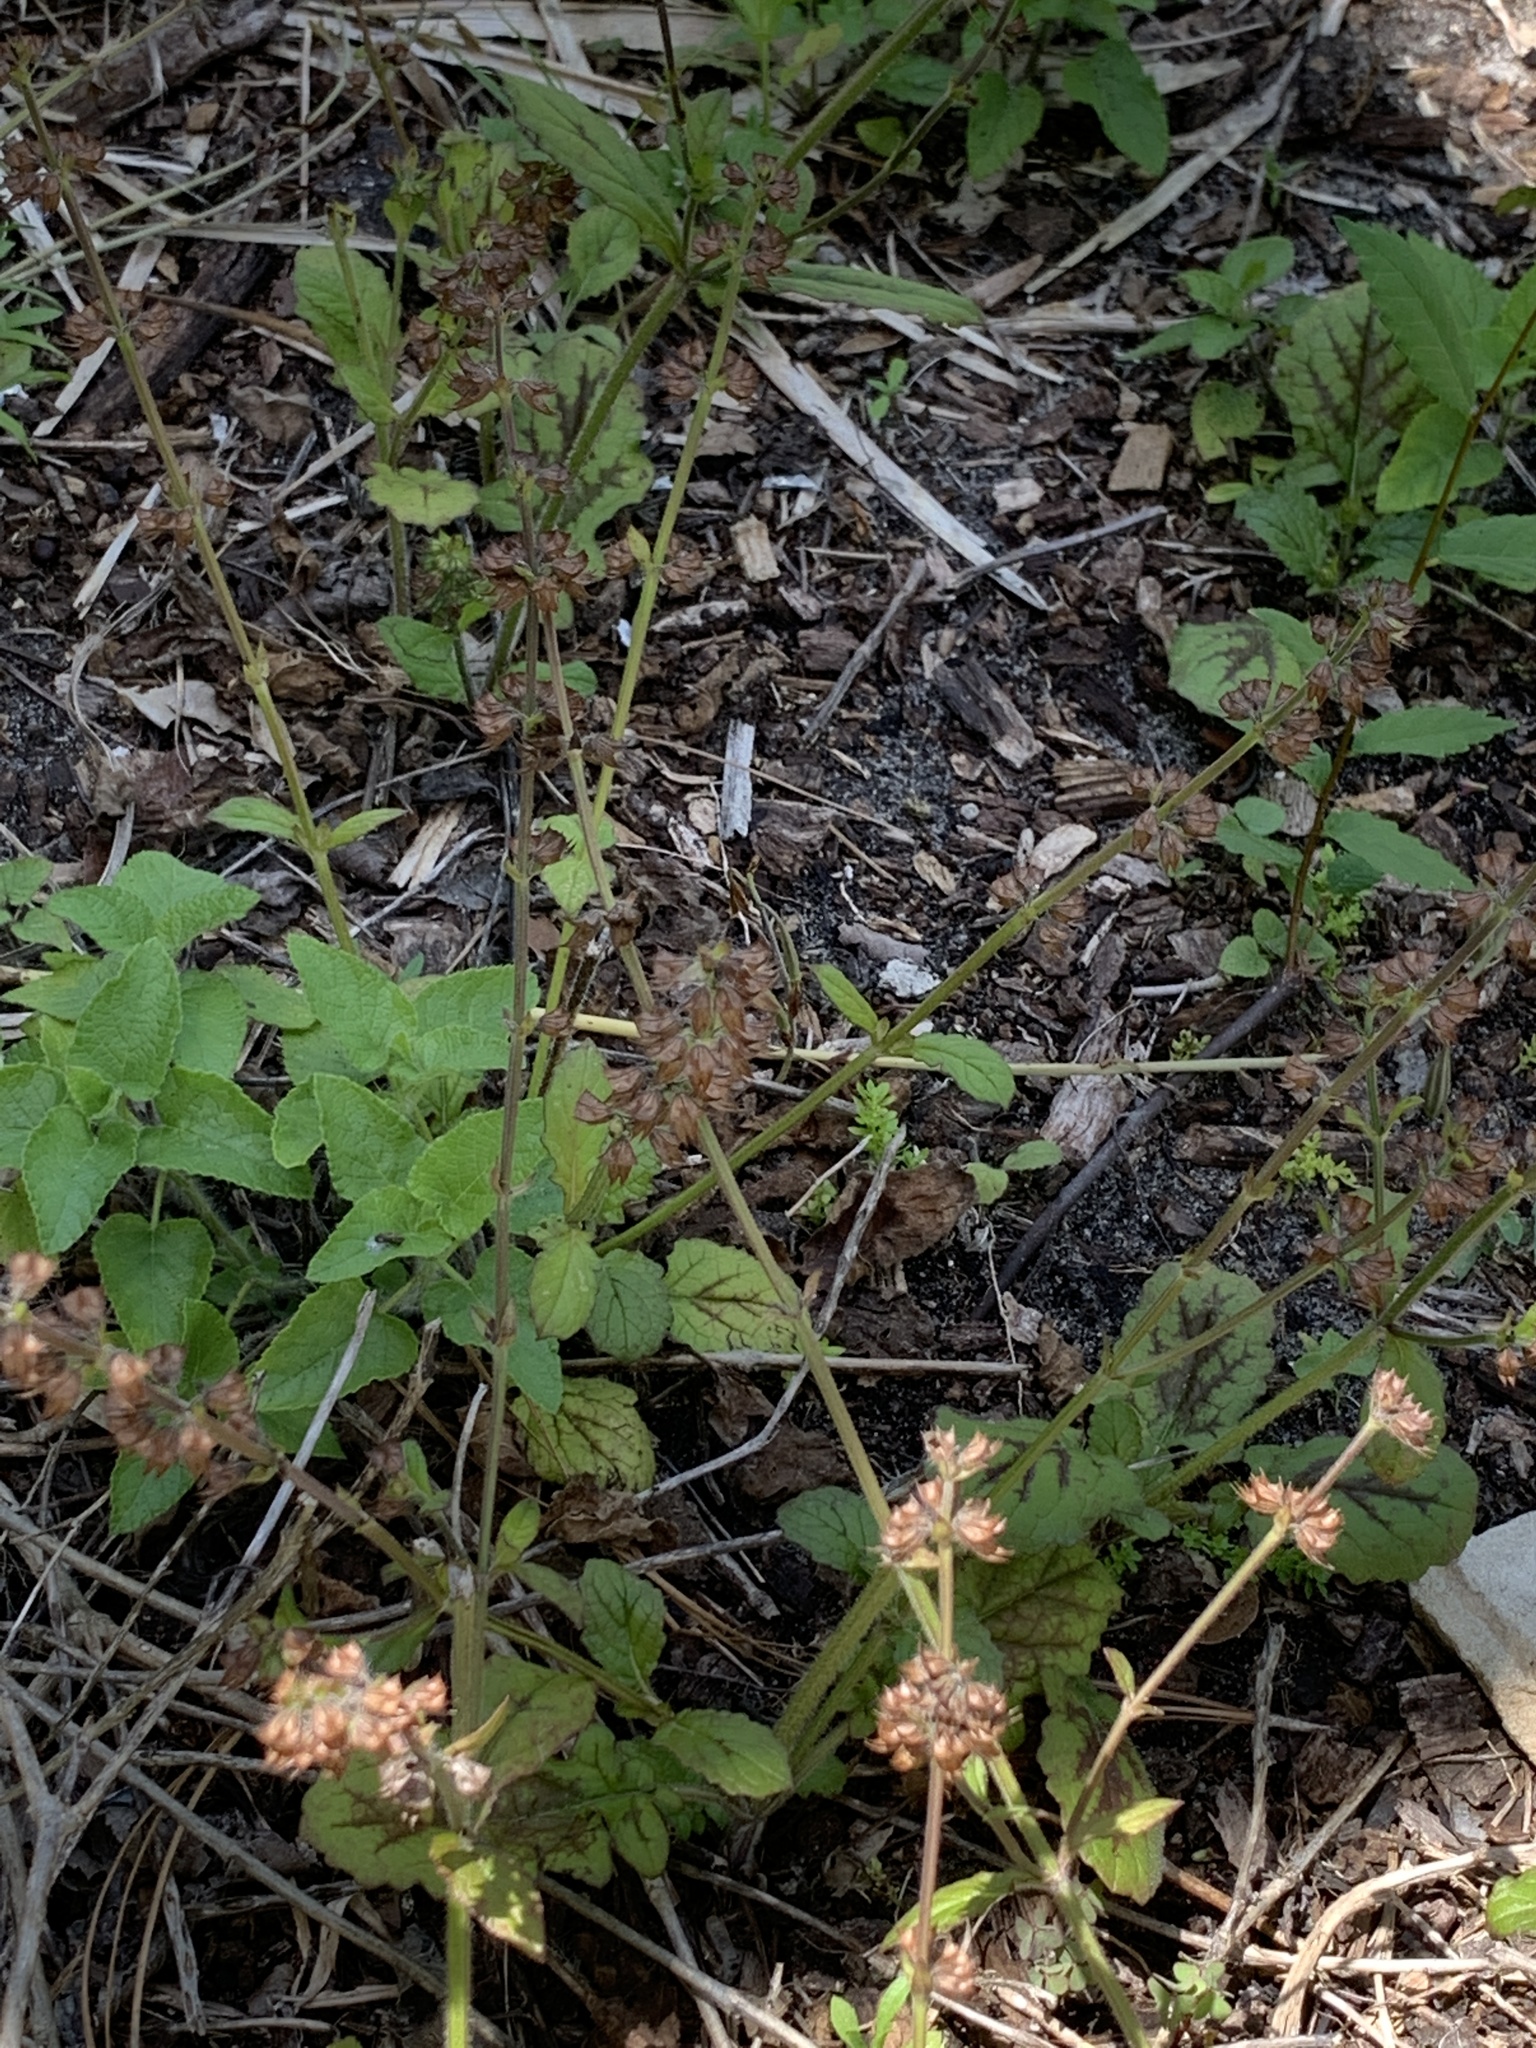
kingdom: Plantae
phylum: Tracheophyta
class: Magnoliopsida
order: Lamiales
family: Lamiaceae
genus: Salvia
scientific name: Salvia lyrata
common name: Cancerweed
